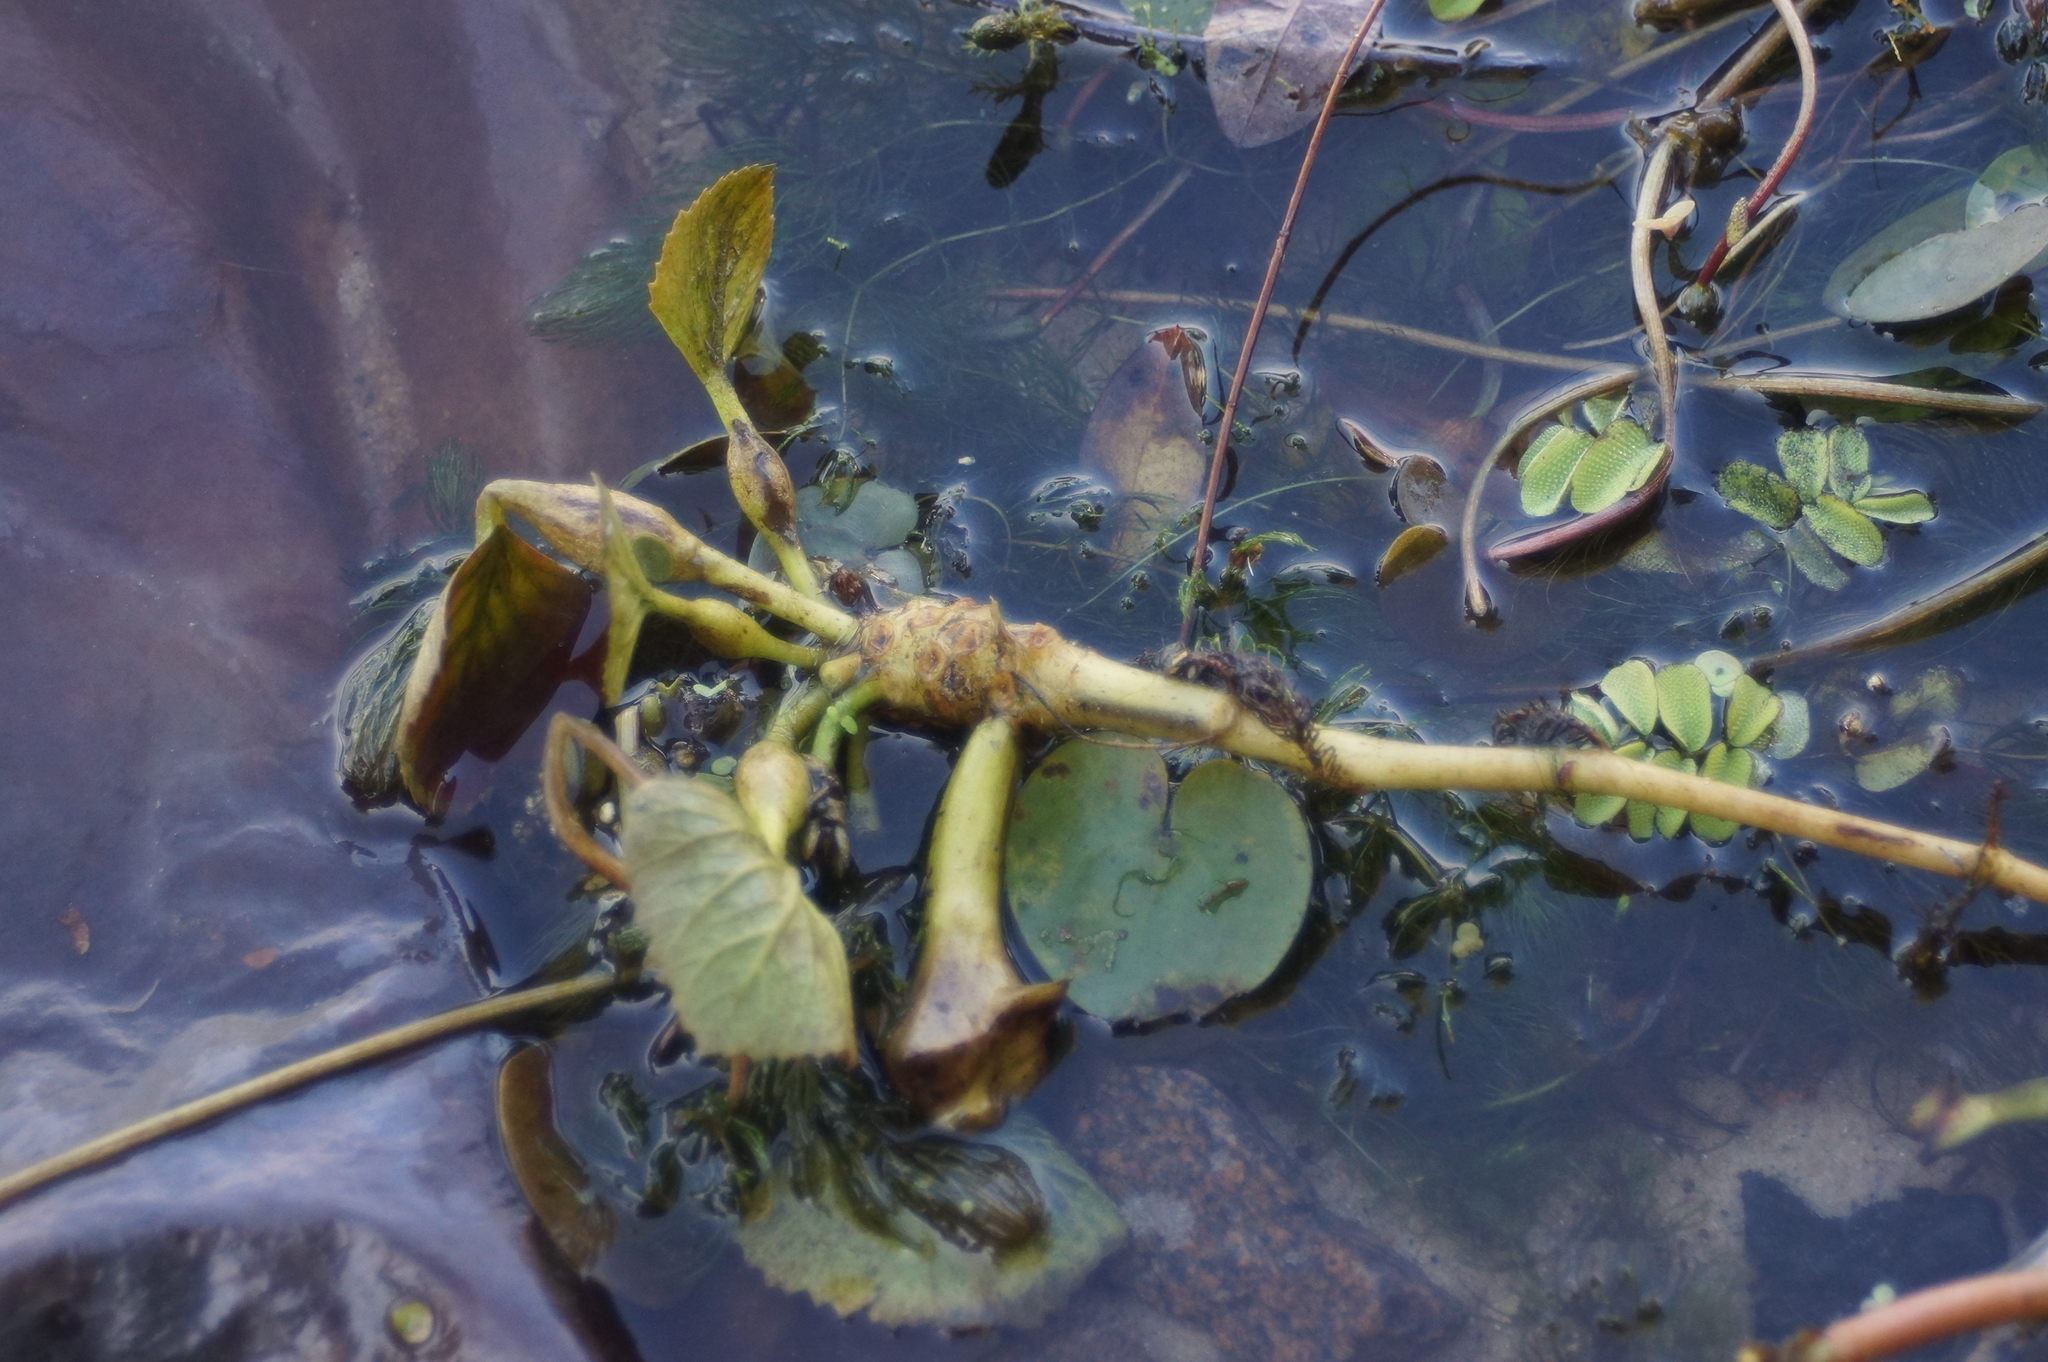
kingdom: Plantae
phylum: Tracheophyta
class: Magnoliopsida
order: Myrtales
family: Lythraceae
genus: Trapa
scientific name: Trapa natans
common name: Water chestnut
